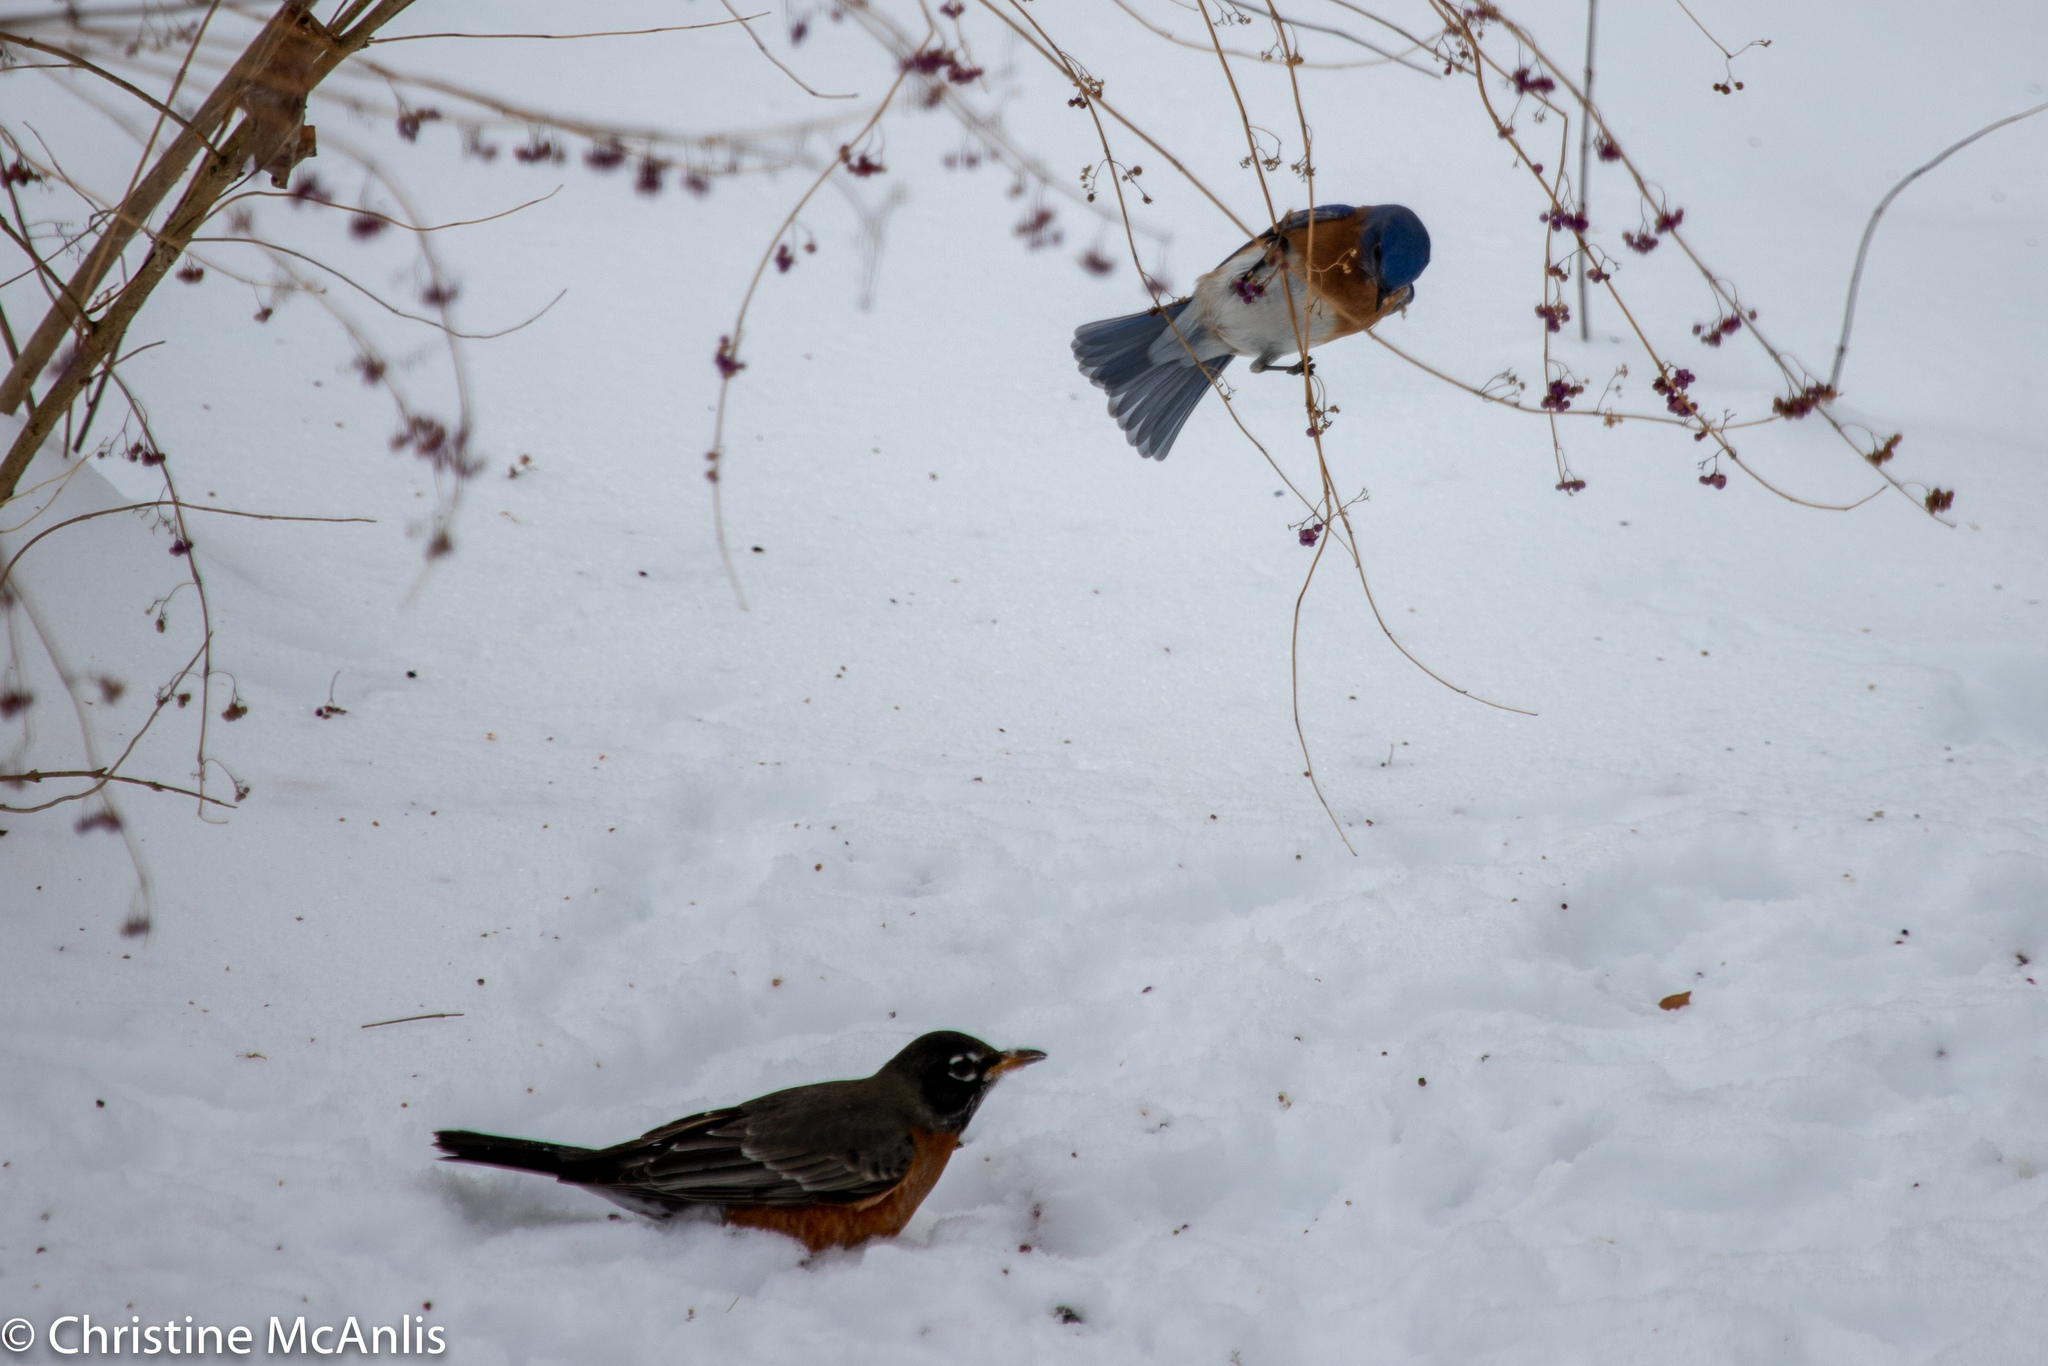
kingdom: Animalia
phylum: Chordata
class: Aves
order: Passeriformes
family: Turdidae
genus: Turdus
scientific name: Turdus migratorius
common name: American robin
